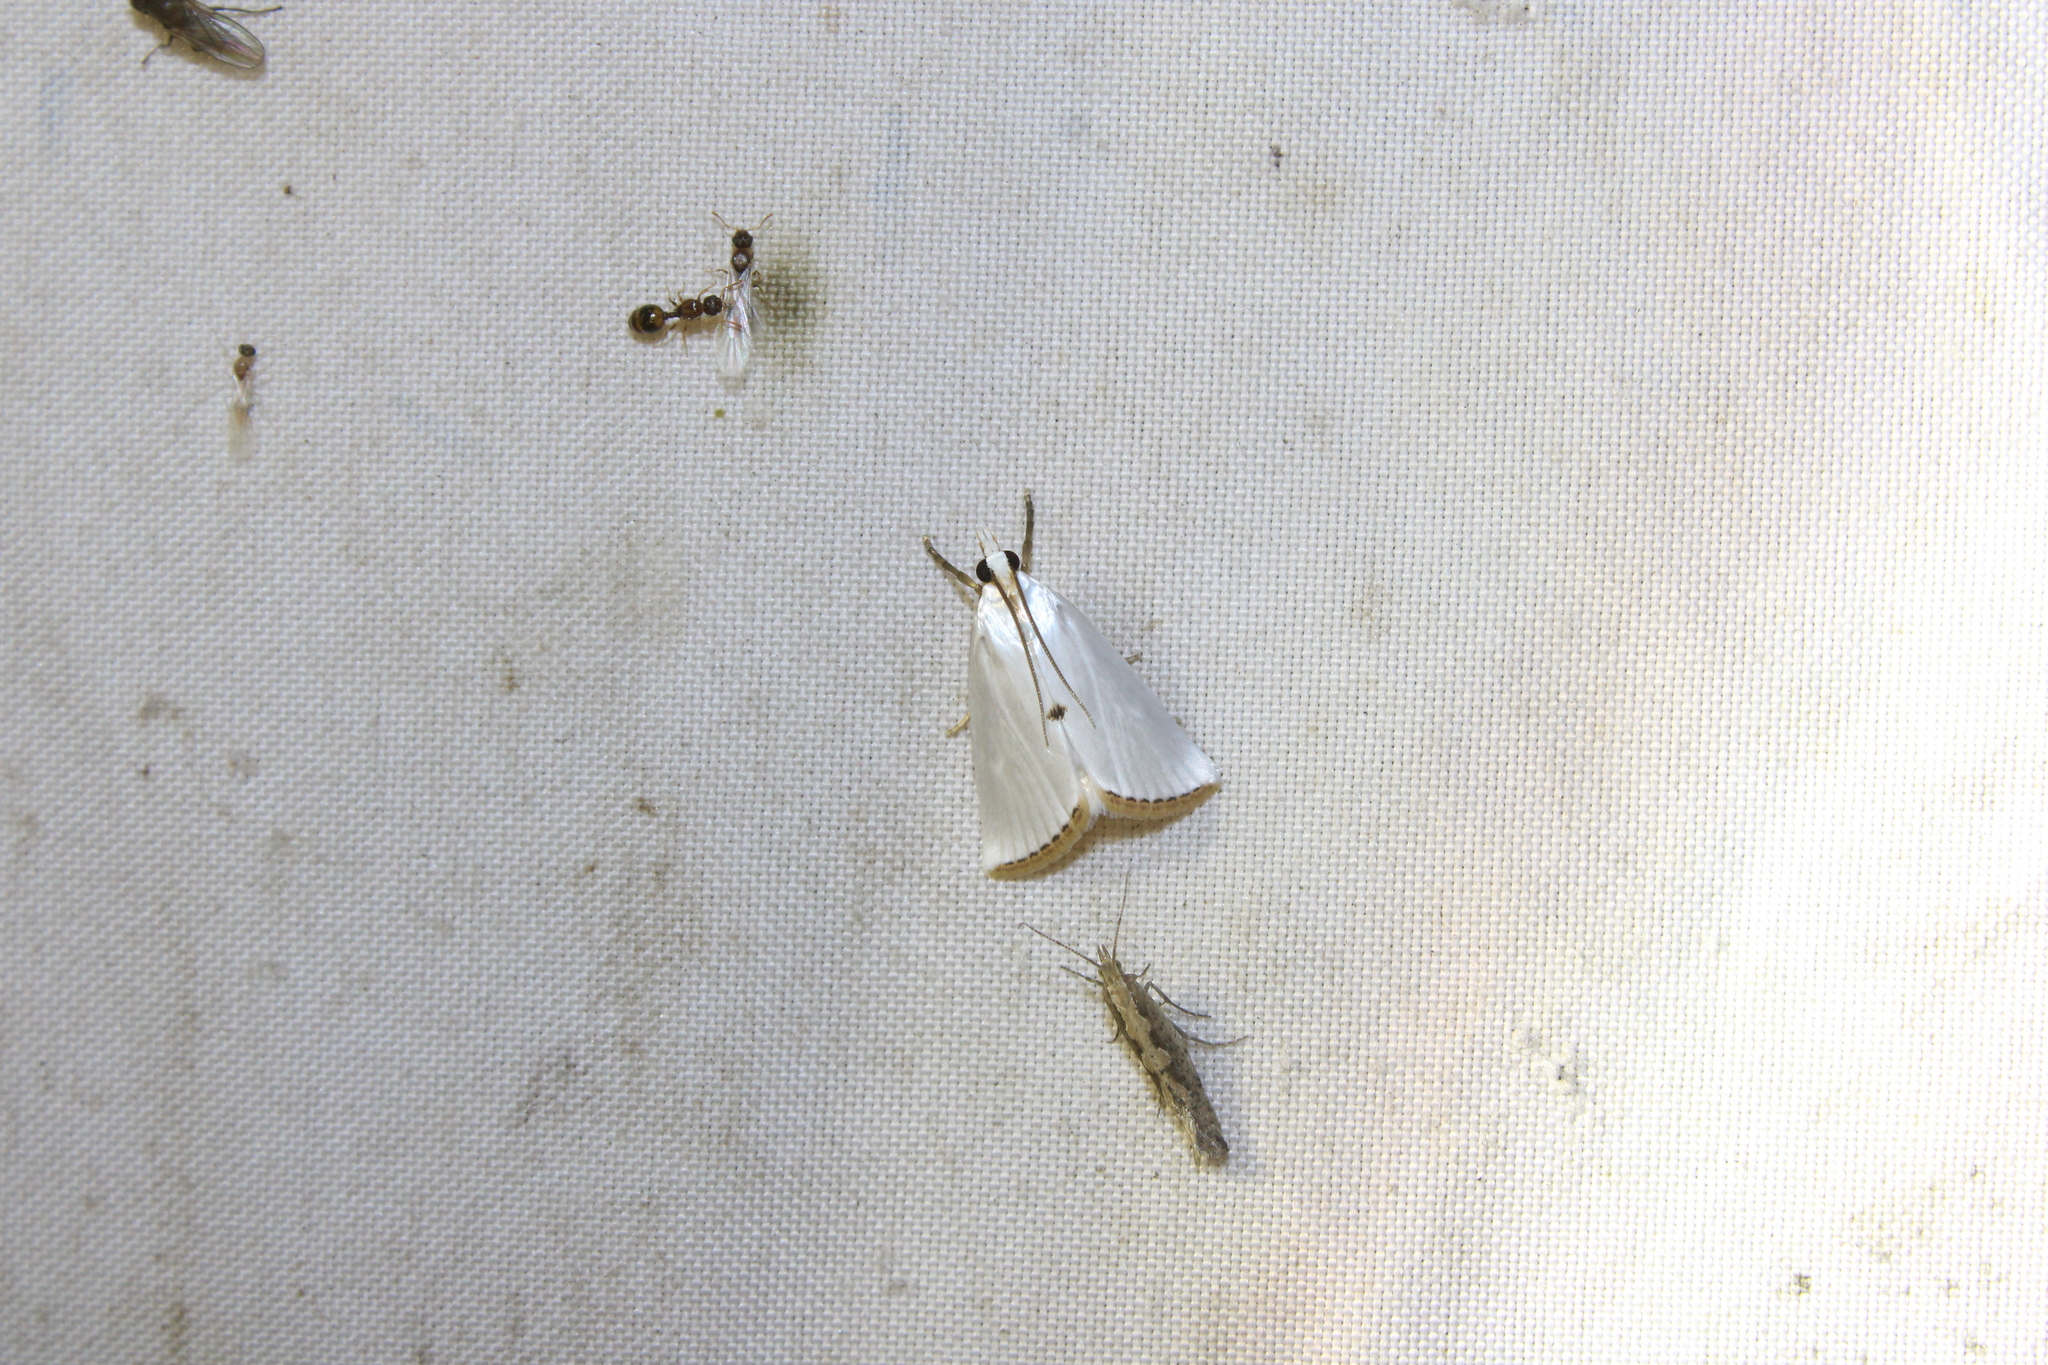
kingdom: Animalia
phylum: Arthropoda
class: Insecta
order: Lepidoptera
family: Crambidae
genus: Argyria
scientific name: Argyria nivalis
